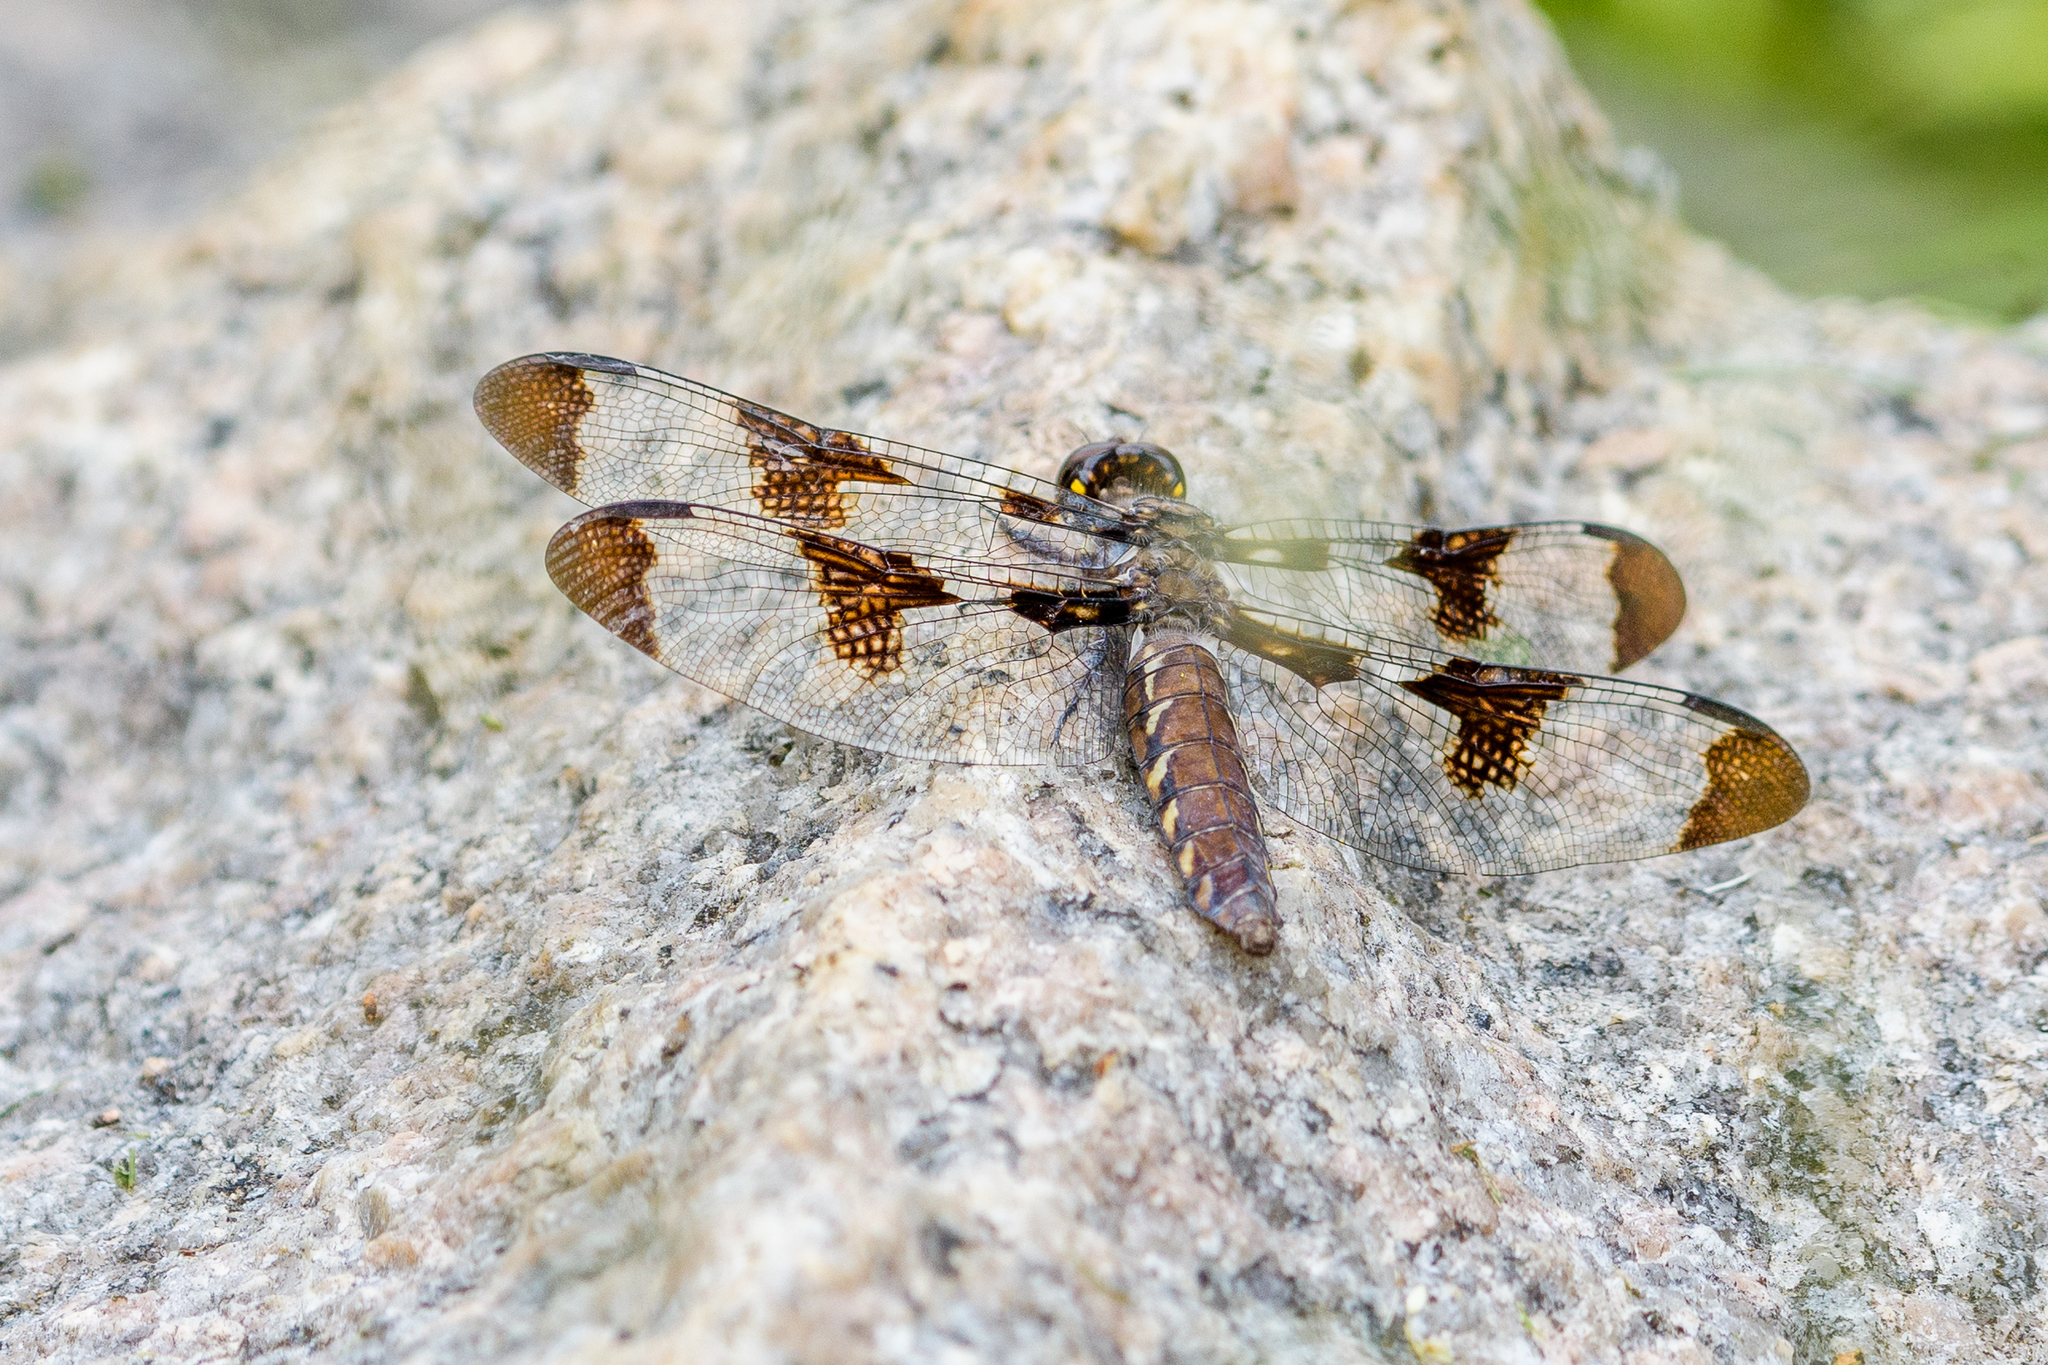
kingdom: Animalia
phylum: Arthropoda
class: Insecta
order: Odonata
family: Libellulidae
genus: Plathemis
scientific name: Plathemis lydia
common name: Common whitetail
